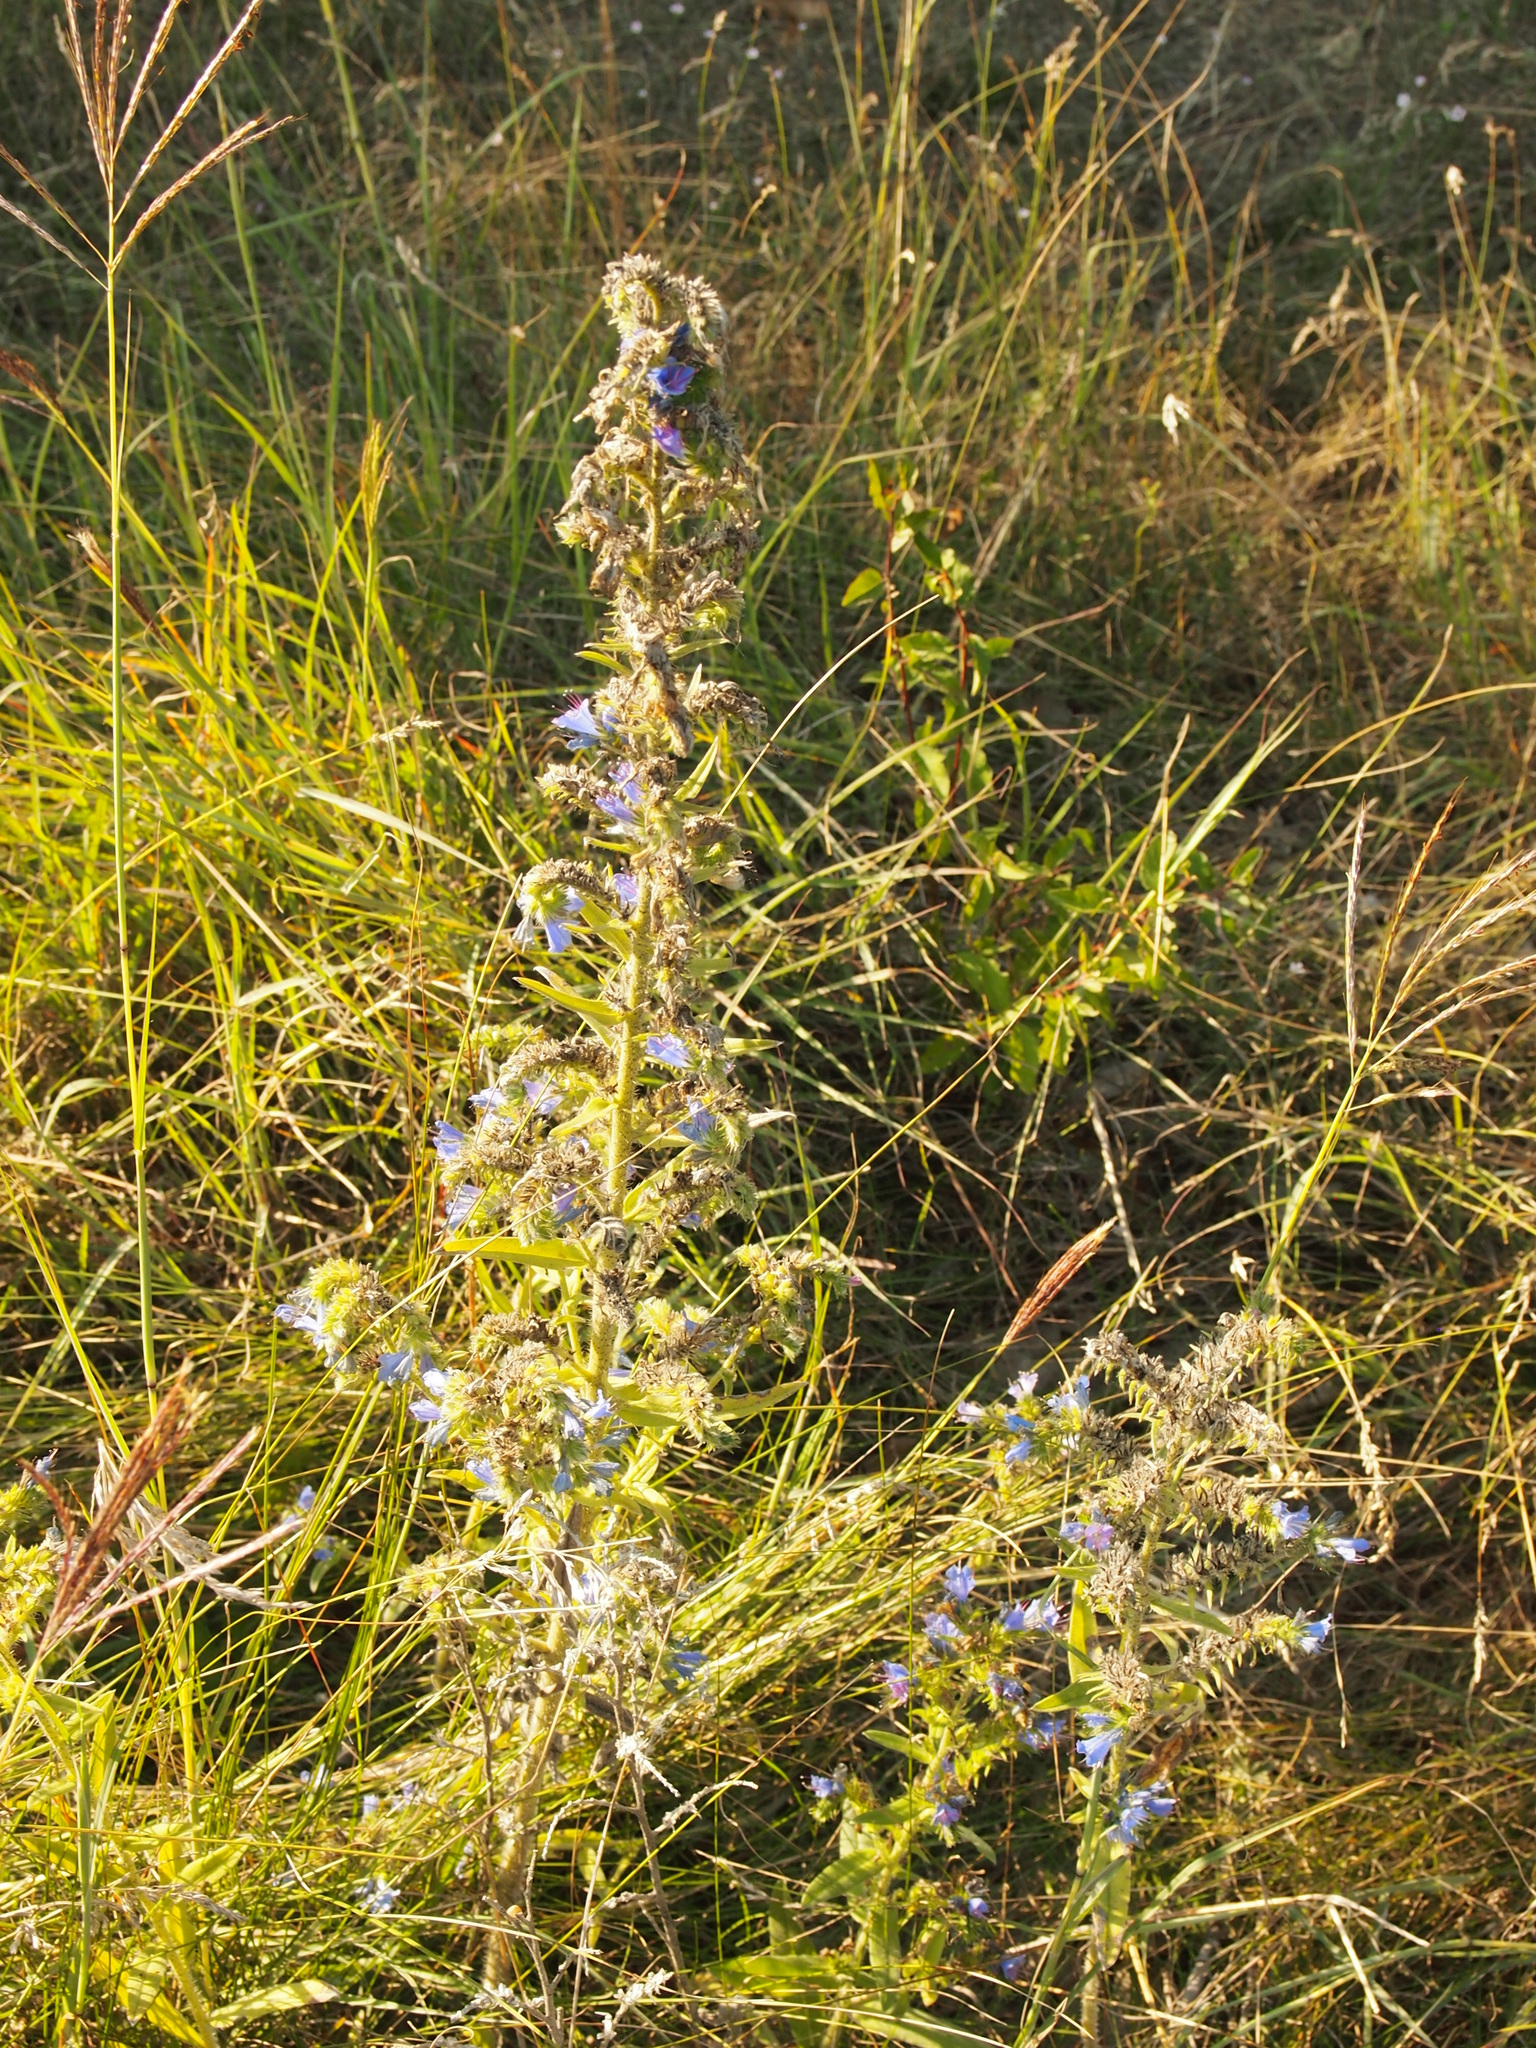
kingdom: Plantae
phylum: Tracheophyta
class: Magnoliopsida
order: Boraginales
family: Boraginaceae
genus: Echium
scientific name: Echium vulgare
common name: Common viper's bugloss
